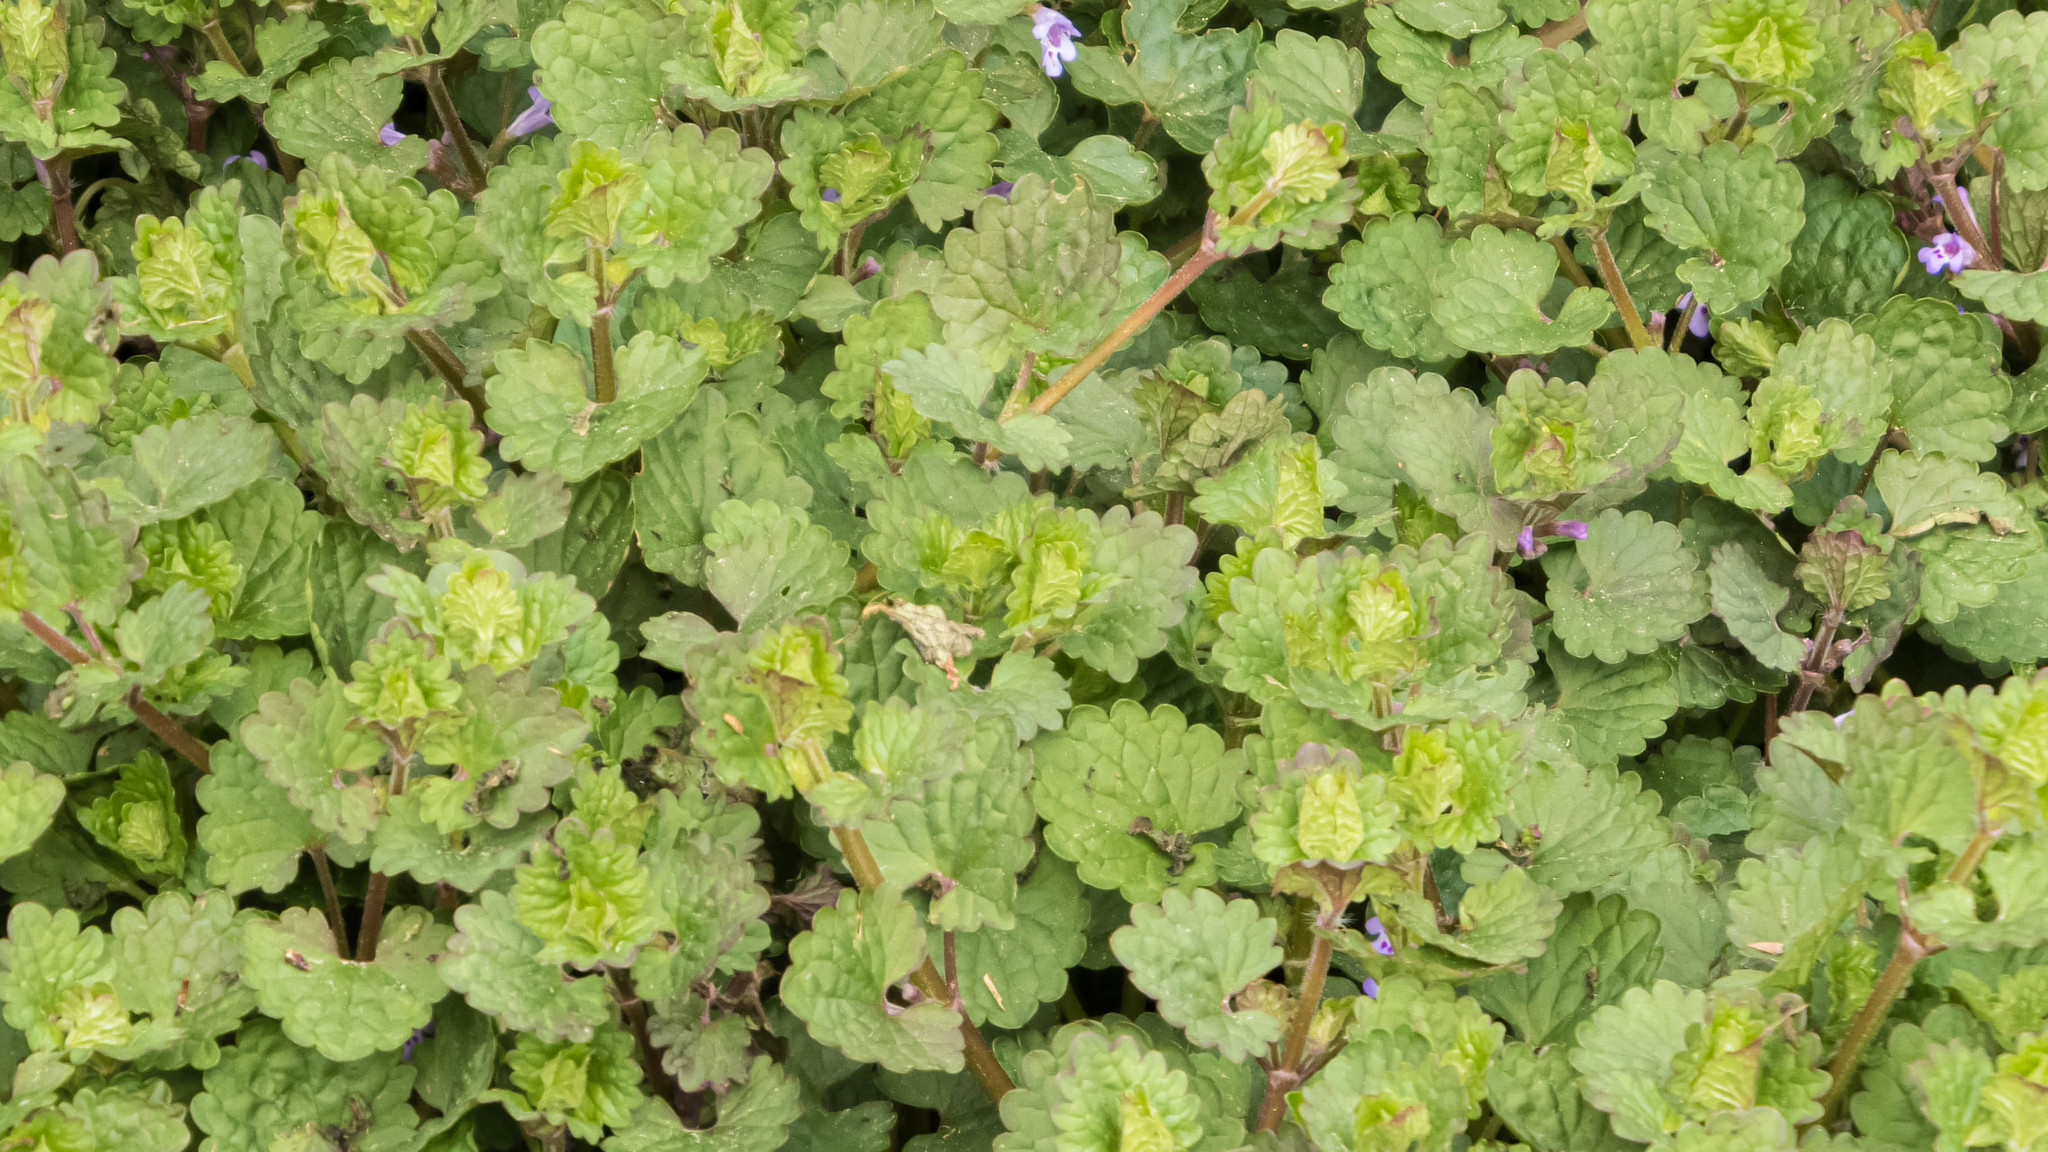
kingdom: Plantae
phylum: Tracheophyta
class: Magnoliopsida
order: Lamiales
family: Lamiaceae
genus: Glechoma
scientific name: Glechoma hederacea
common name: Ground ivy
